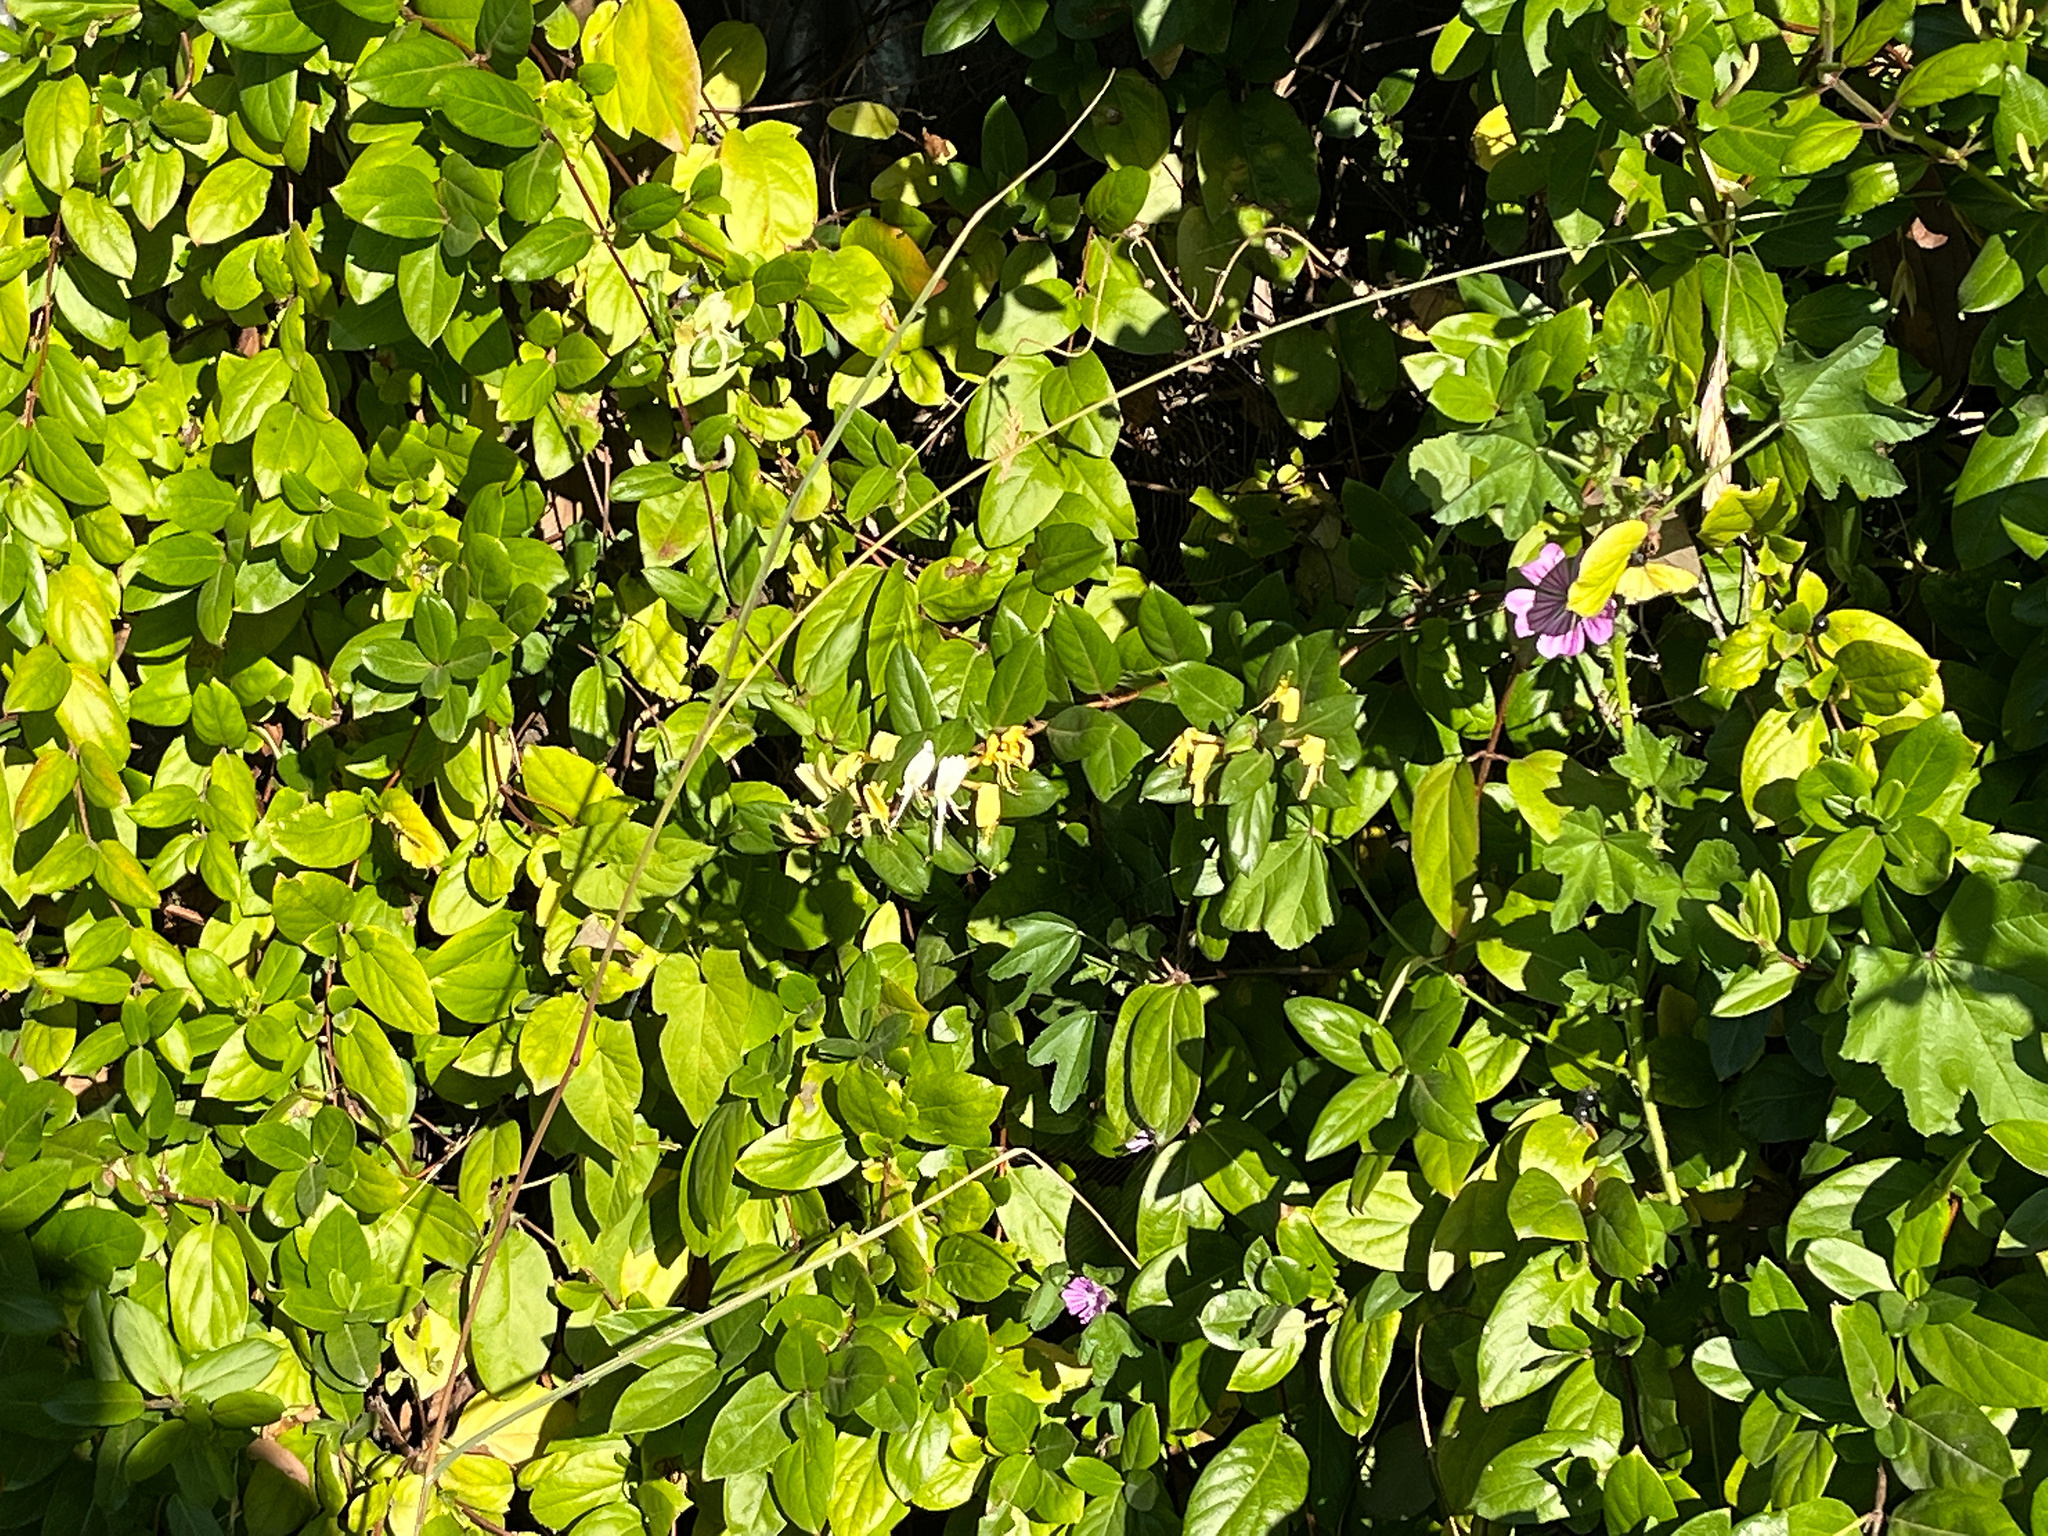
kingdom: Plantae
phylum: Tracheophyta
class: Magnoliopsida
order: Dipsacales
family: Caprifoliaceae
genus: Lonicera
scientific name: Lonicera japonica
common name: Japanese honeysuckle
